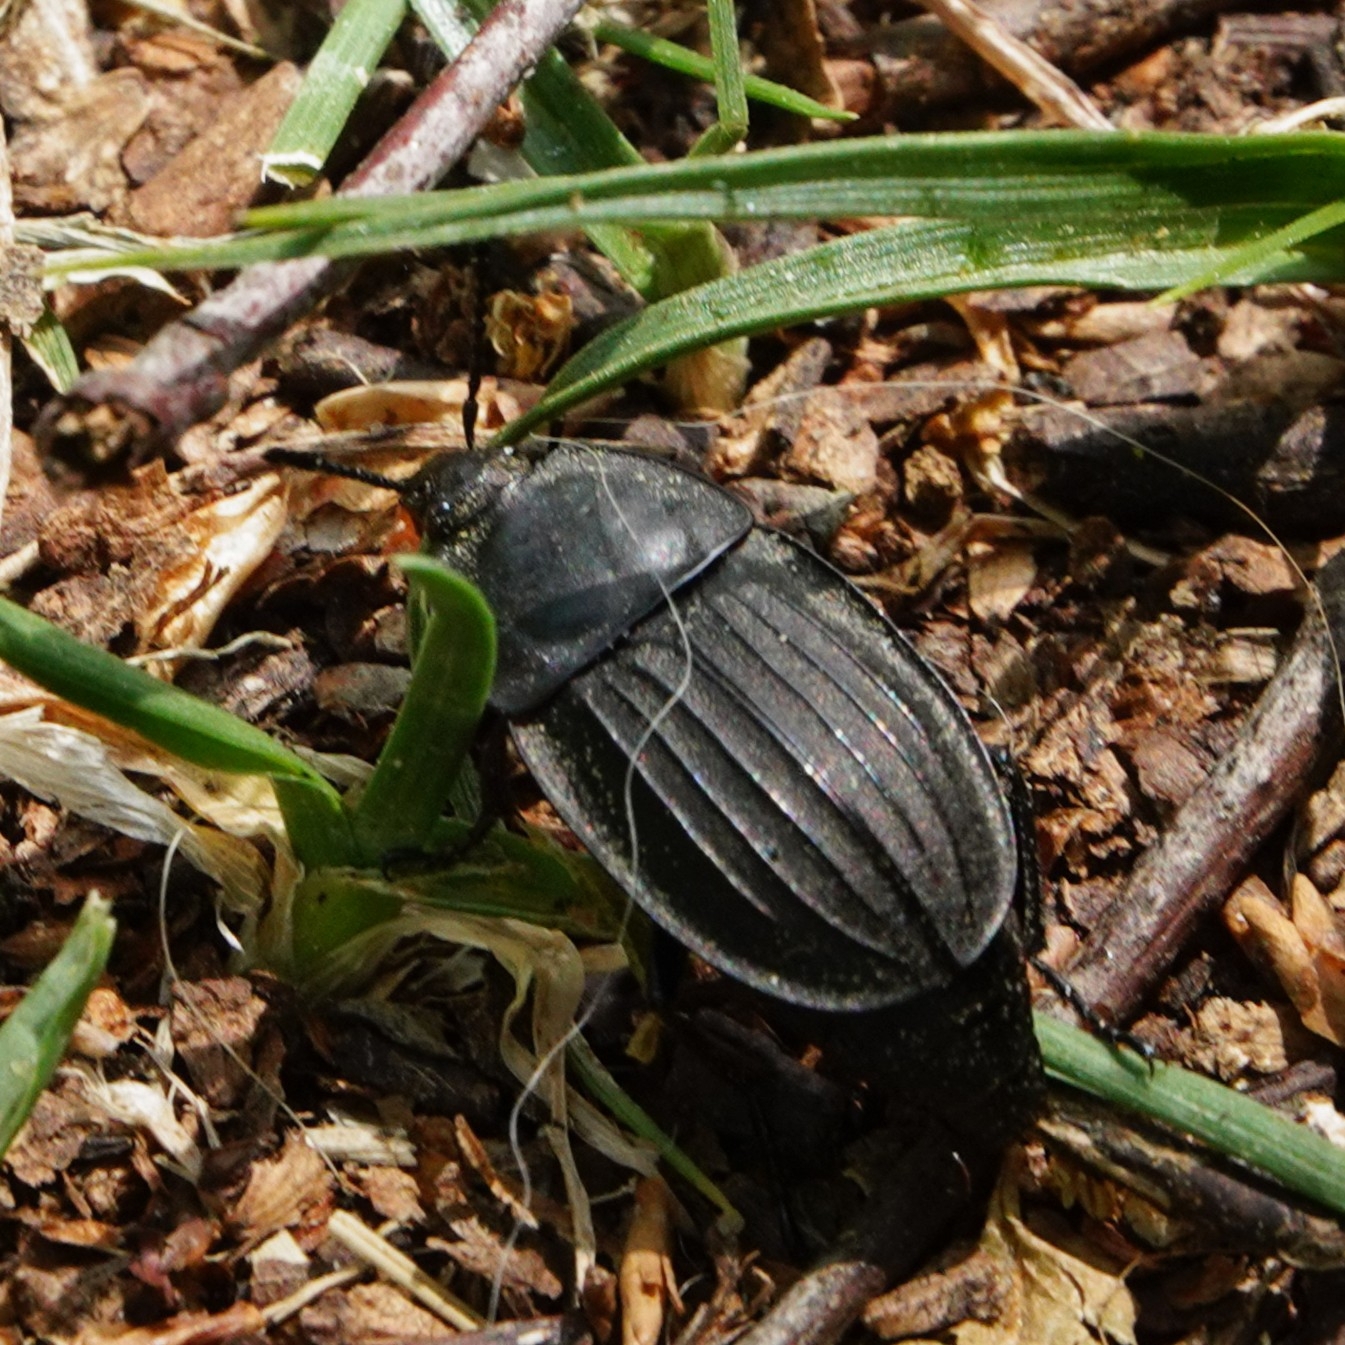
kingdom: Animalia
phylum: Arthropoda
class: Insecta
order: Coleoptera
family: Staphylinidae
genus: Silpha
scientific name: Silpha carinata
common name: Silphid beetle
